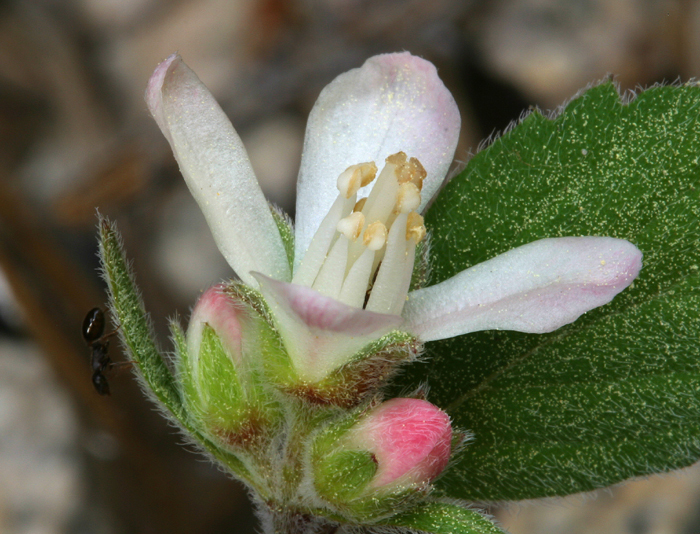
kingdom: Plantae
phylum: Tracheophyta
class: Magnoliopsida
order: Cornales
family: Hydrangeaceae
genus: Jamesia
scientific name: Jamesia americana
